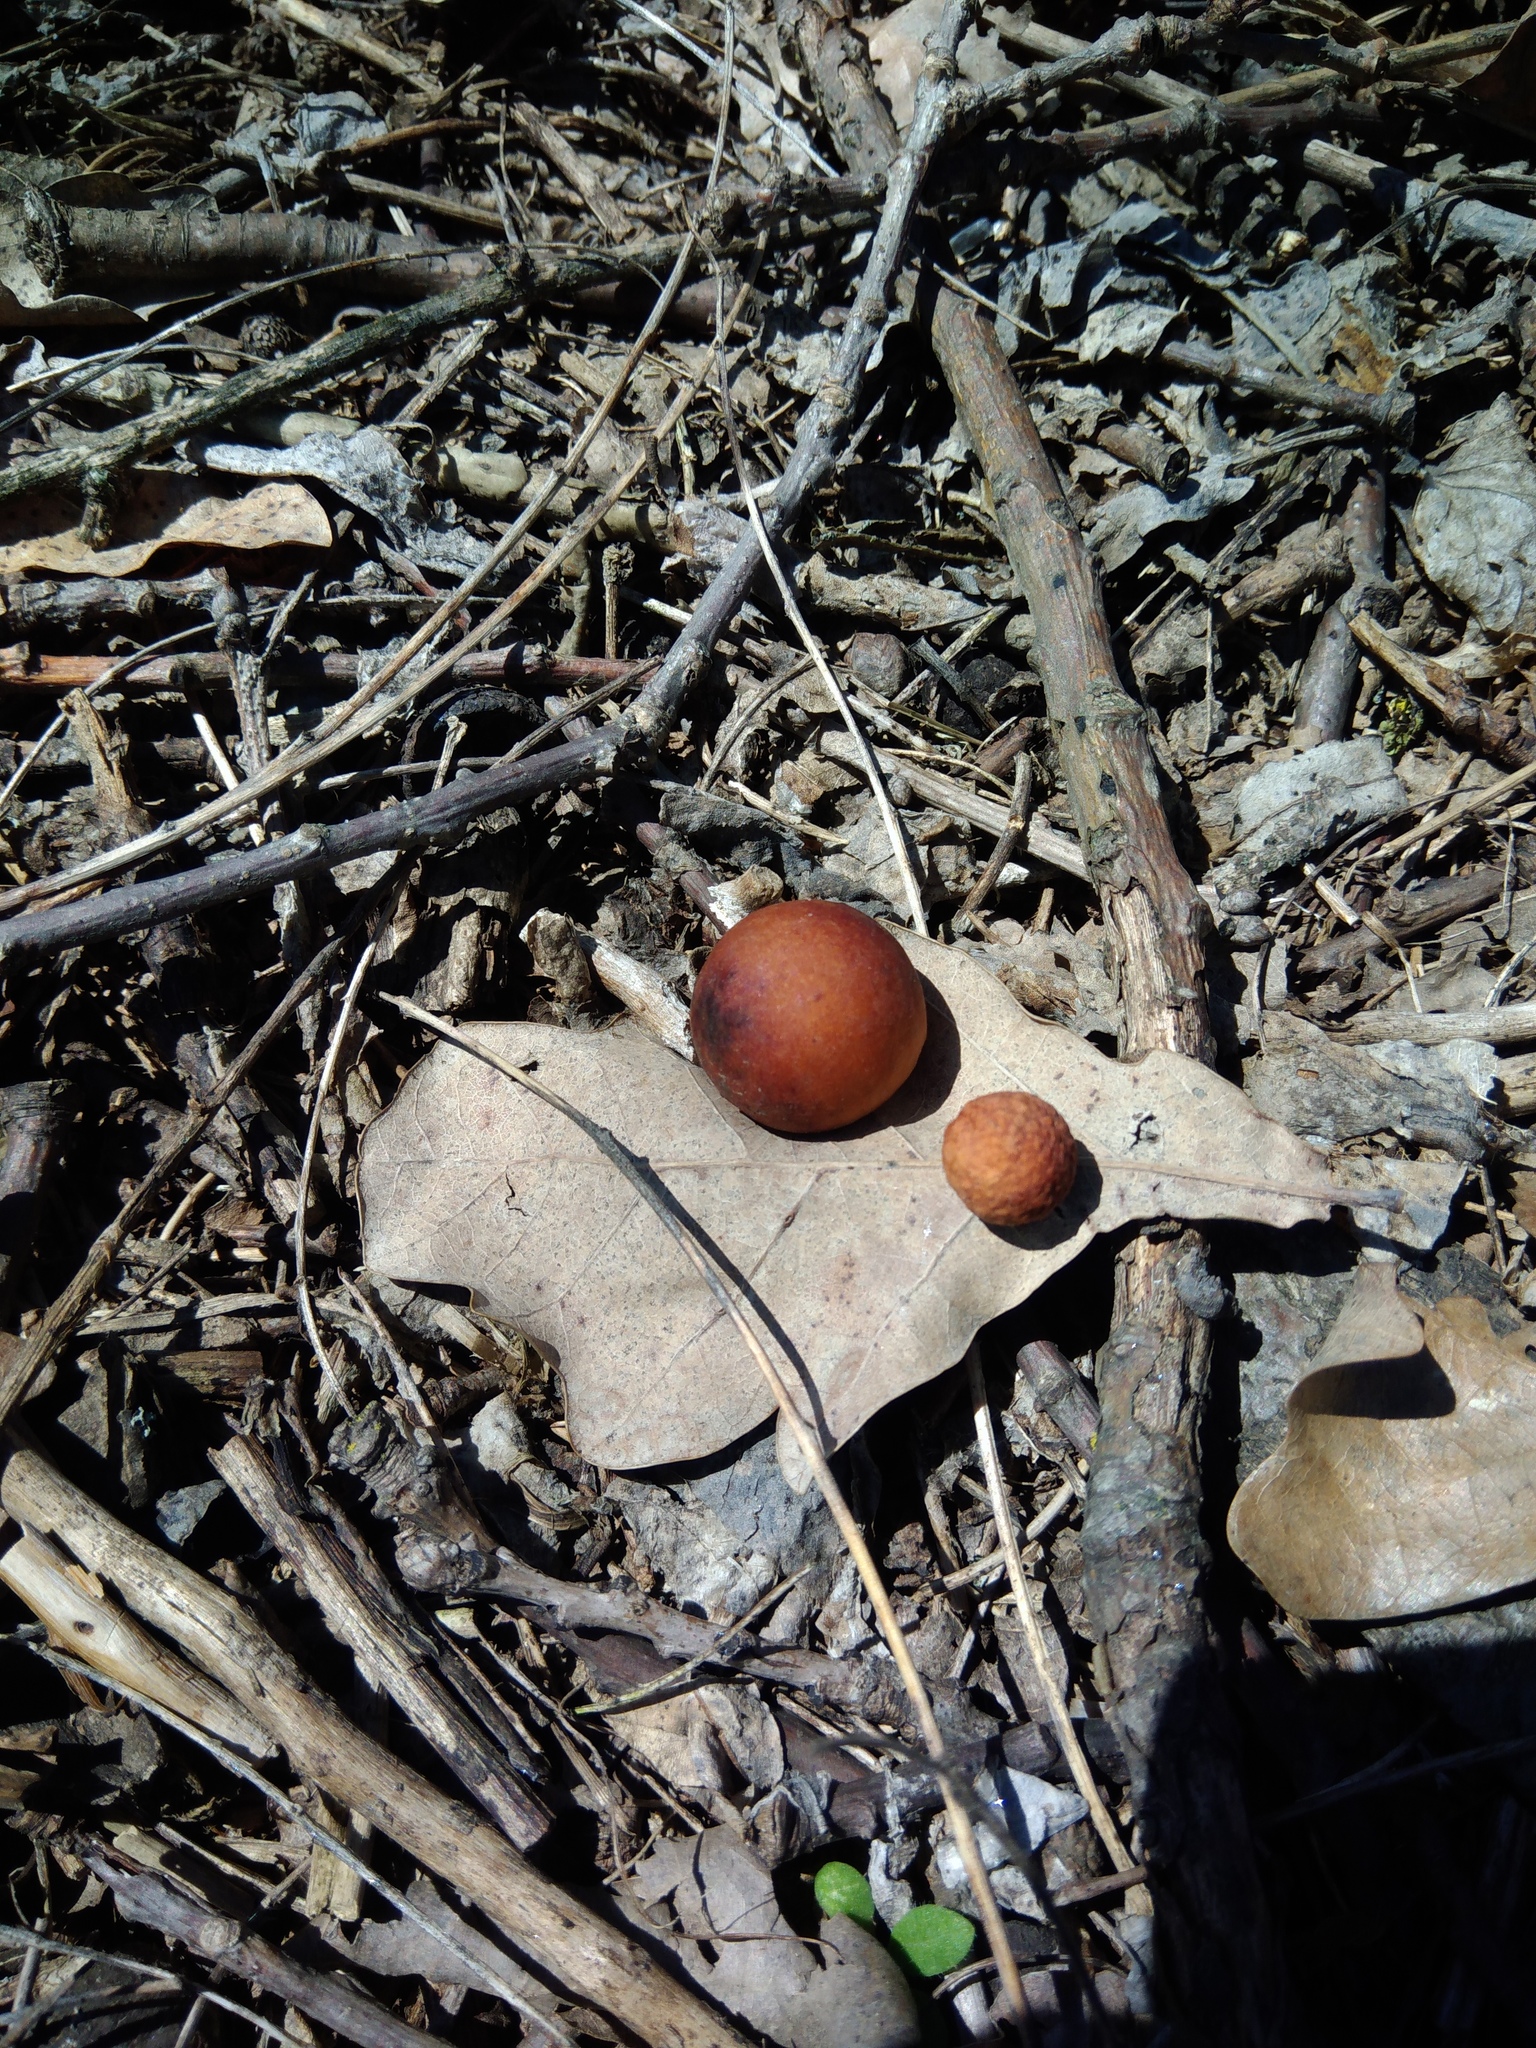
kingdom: Animalia
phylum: Arthropoda
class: Insecta
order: Hymenoptera
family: Cynipidae
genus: Cynips
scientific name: Cynips quercusfolii
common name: Cherry gall
